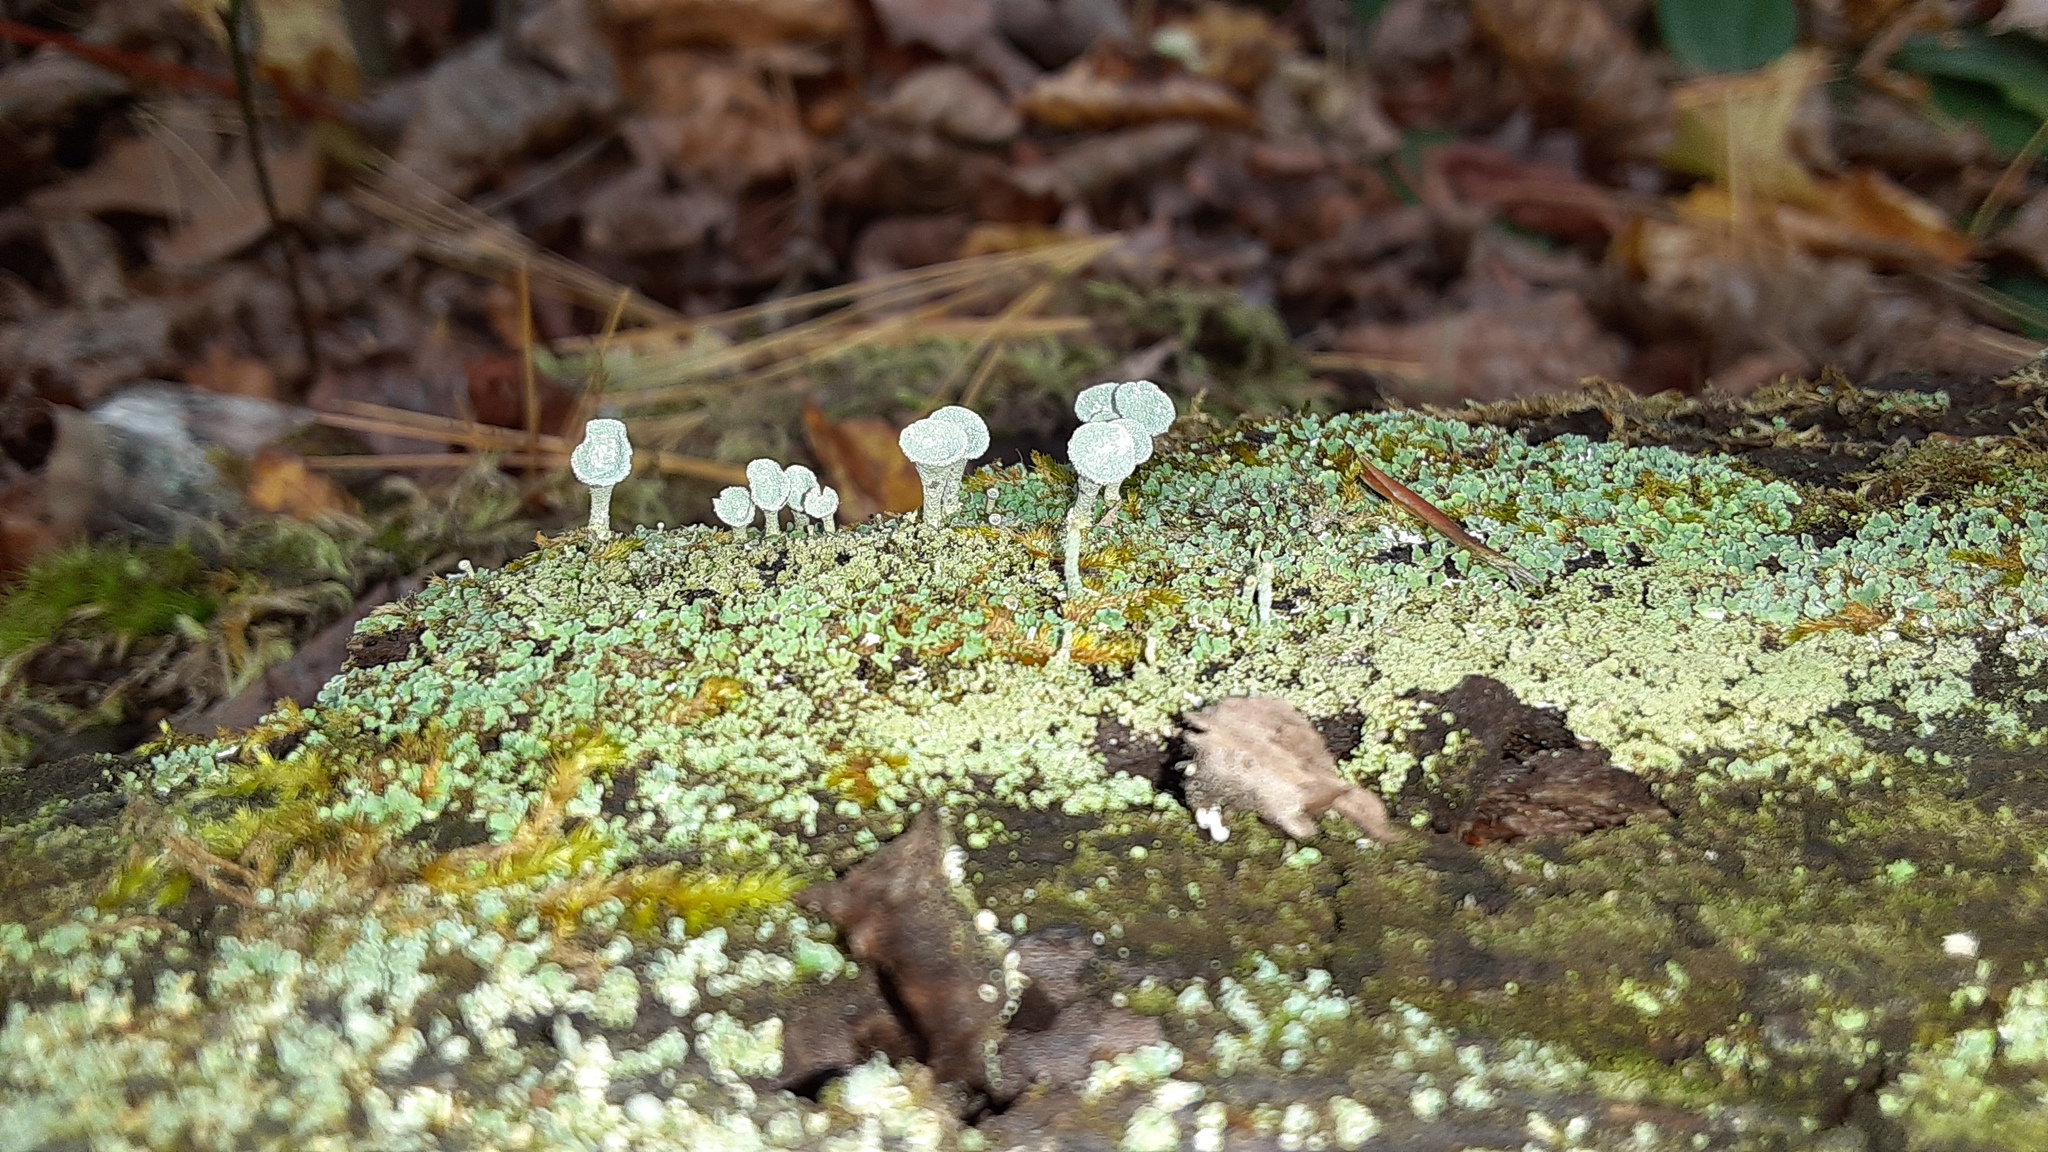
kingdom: Fungi
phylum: Ascomycota
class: Lecanoromycetes
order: Lecanorales
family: Cladoniaceae
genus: Cladonia
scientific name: Cladonia fimbriata
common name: Powdered trumpet lichen
